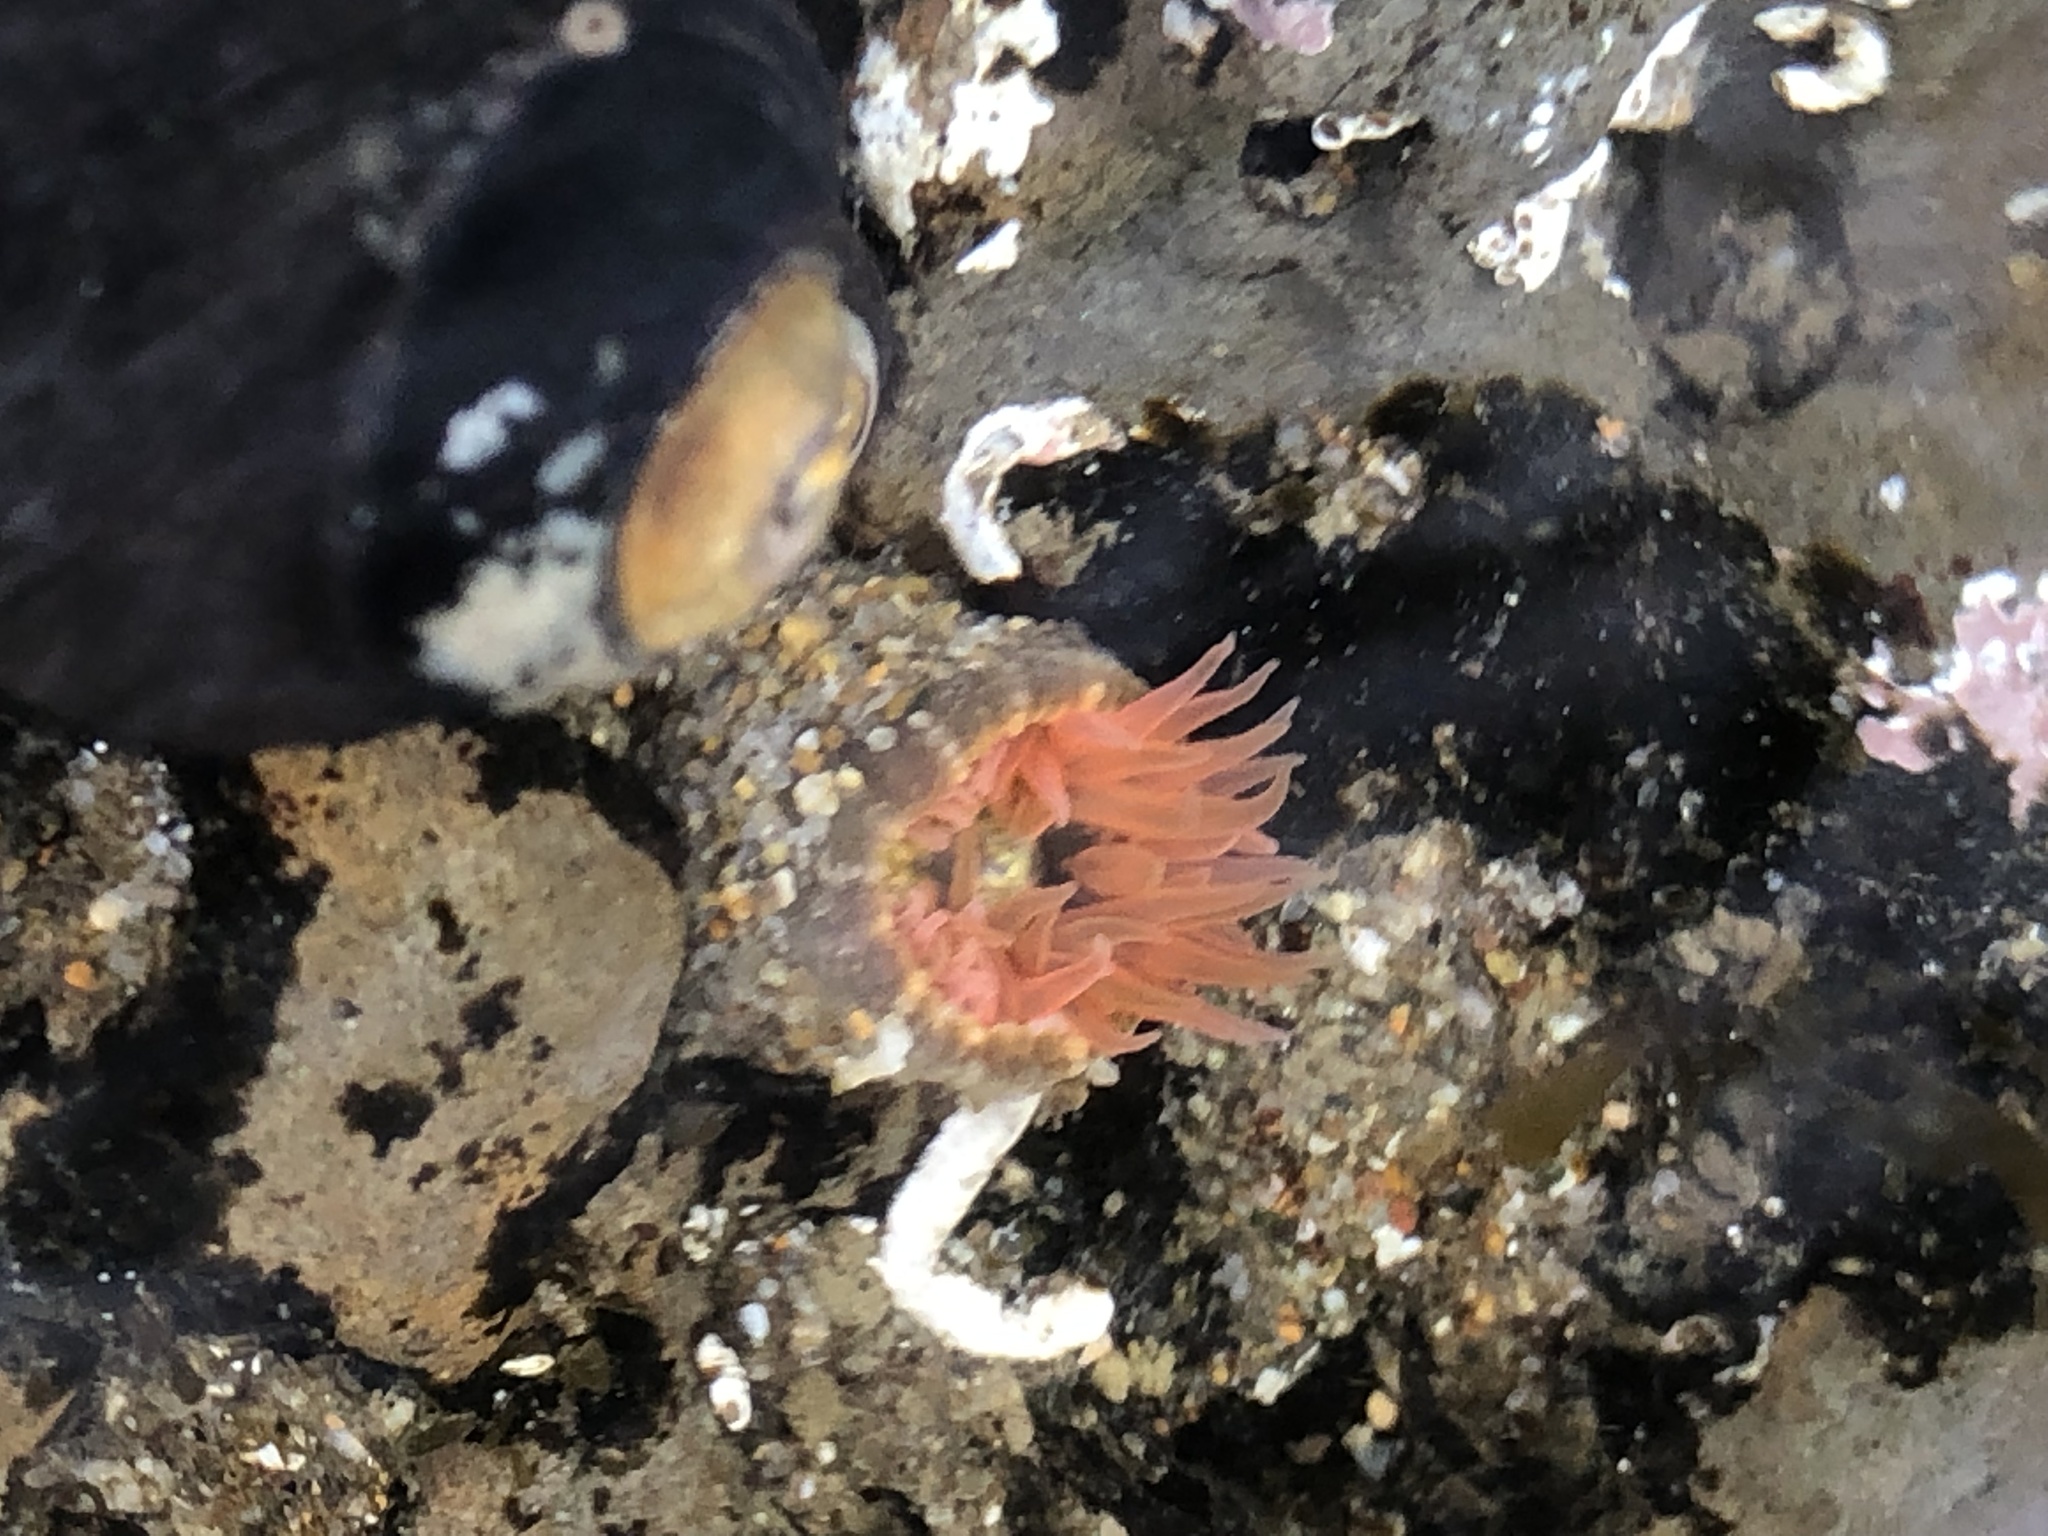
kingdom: Animalia
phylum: Cnidaria
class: Anthozoa
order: Actiniaria
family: Actiniidae
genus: Anthopleura
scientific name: Anthopleura artemisia
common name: Buried sea anemone
